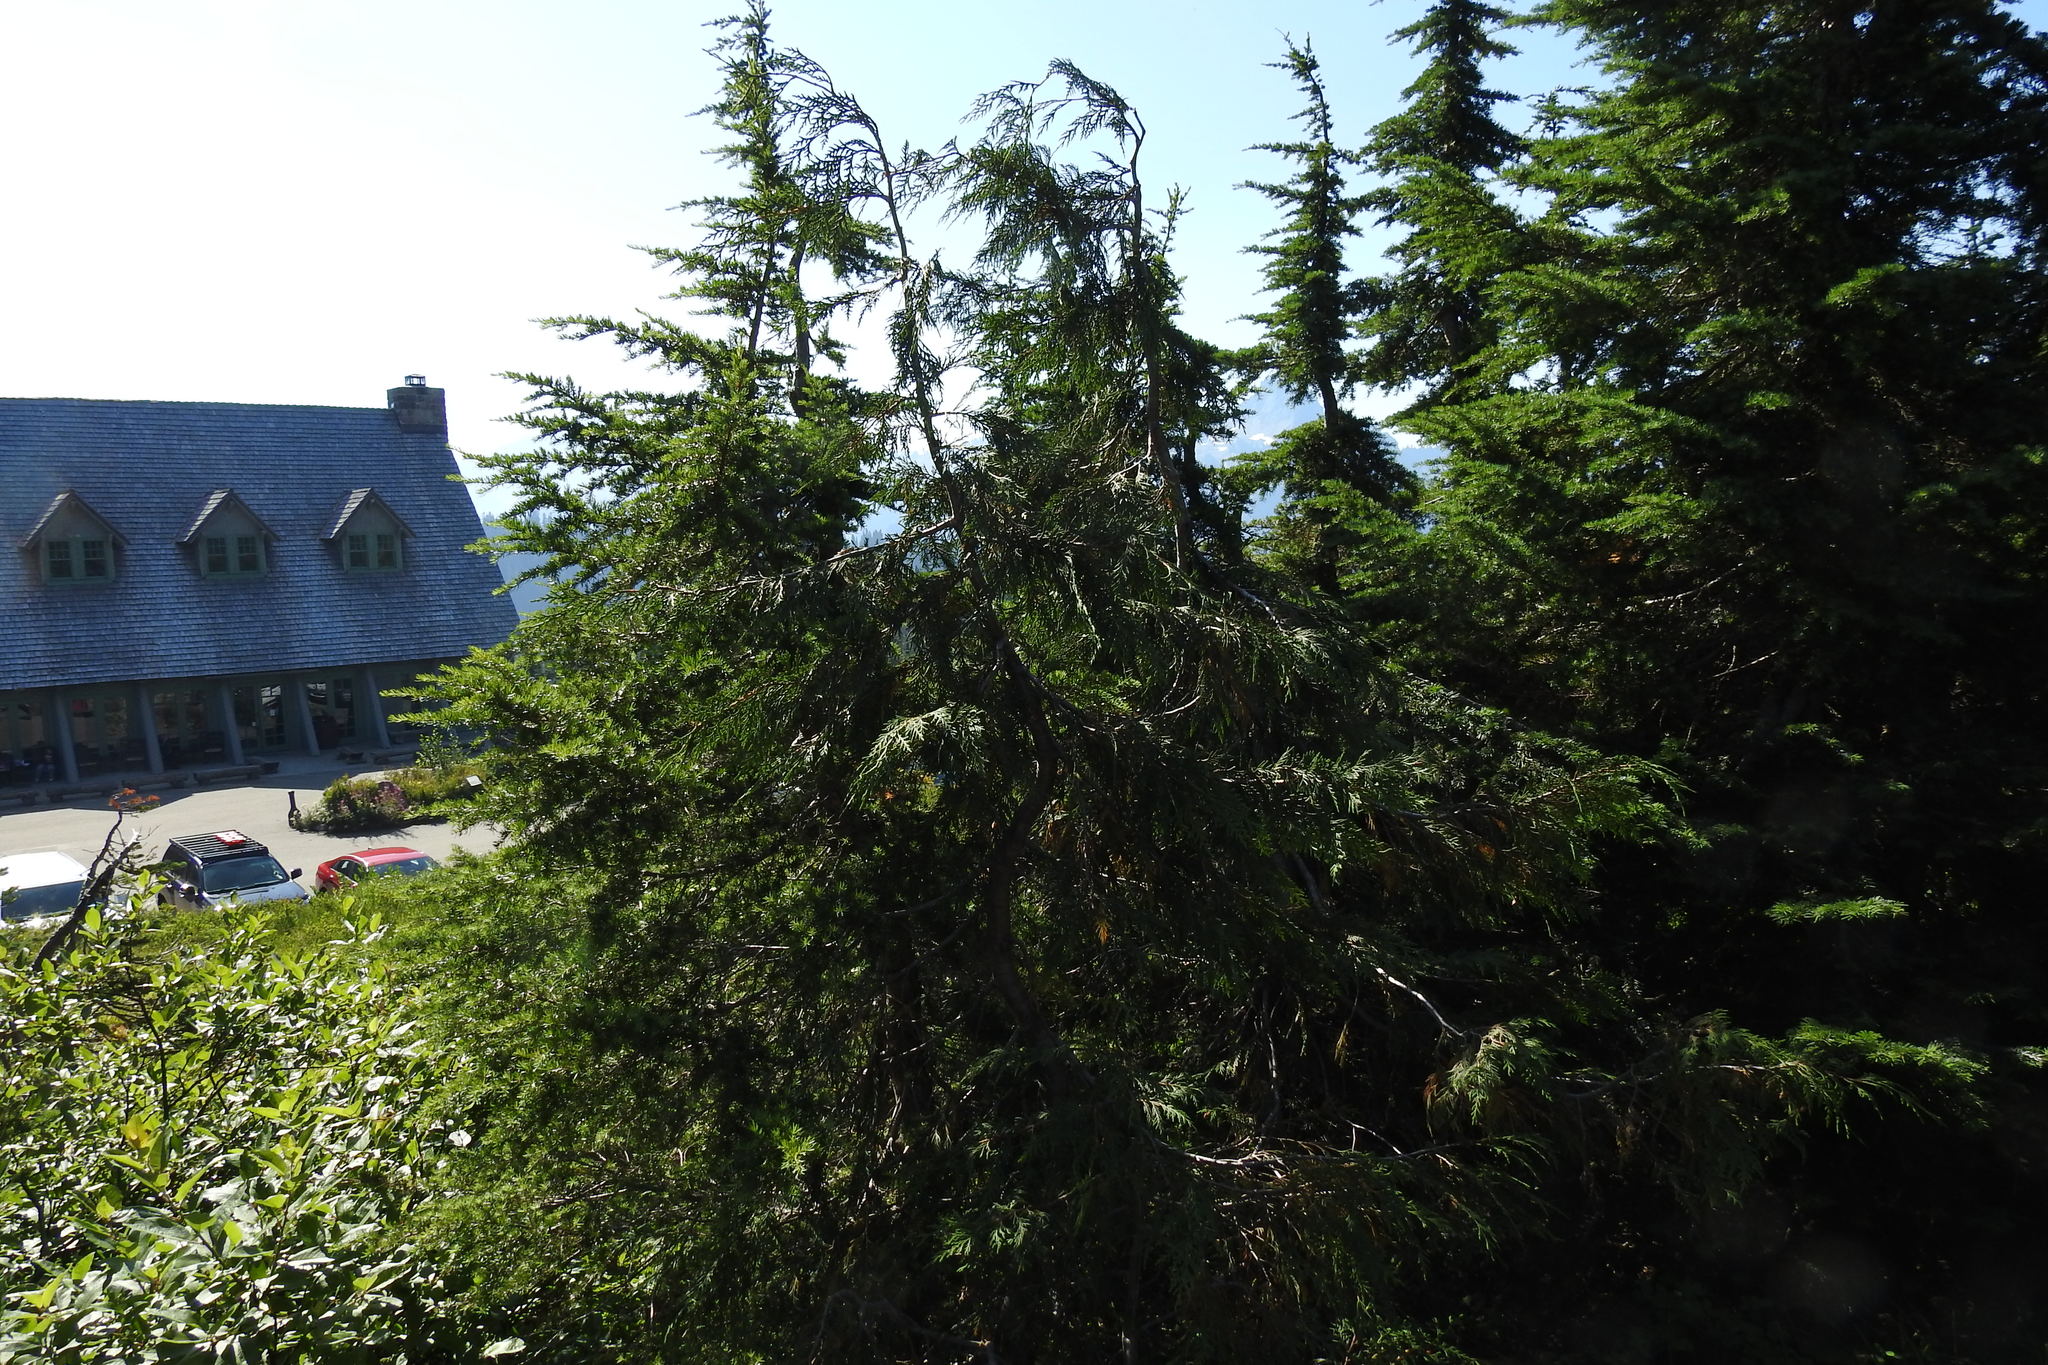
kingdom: Plantae
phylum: Tracheophyta
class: Pinopsida
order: Pinales
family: Cupressaceae
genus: Xanthocyparis
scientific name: Xanthocyparis nootkatensis
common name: Nootka cypress
